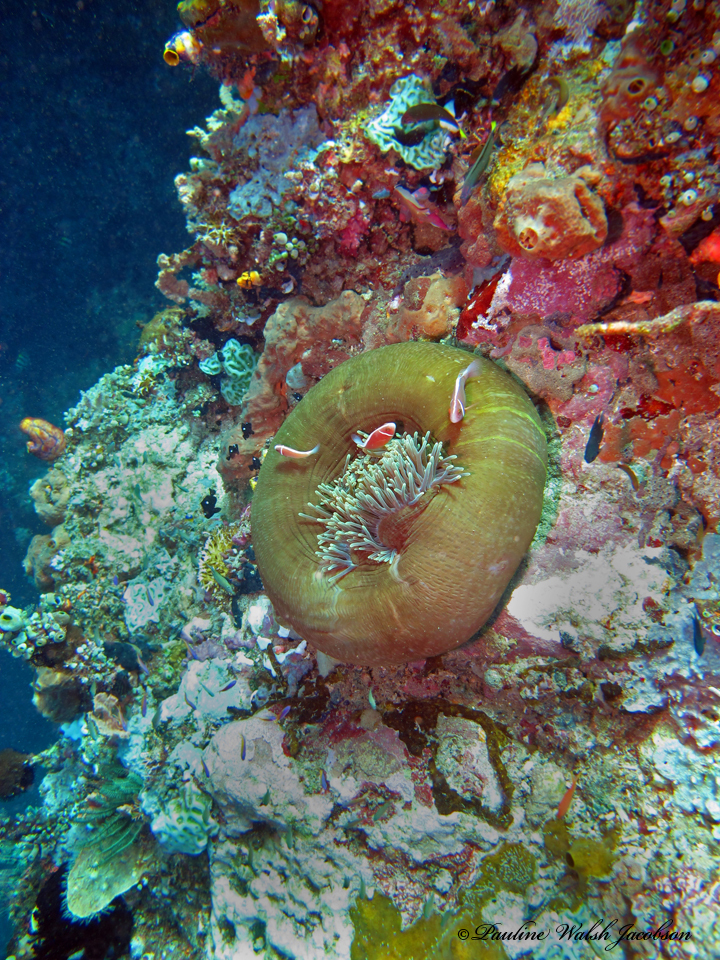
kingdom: Animalia
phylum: Chordata
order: Perciformes
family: Pomacentridae
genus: Amphiprion
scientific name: Amphiprion perideraion
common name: Pink anemonefish
